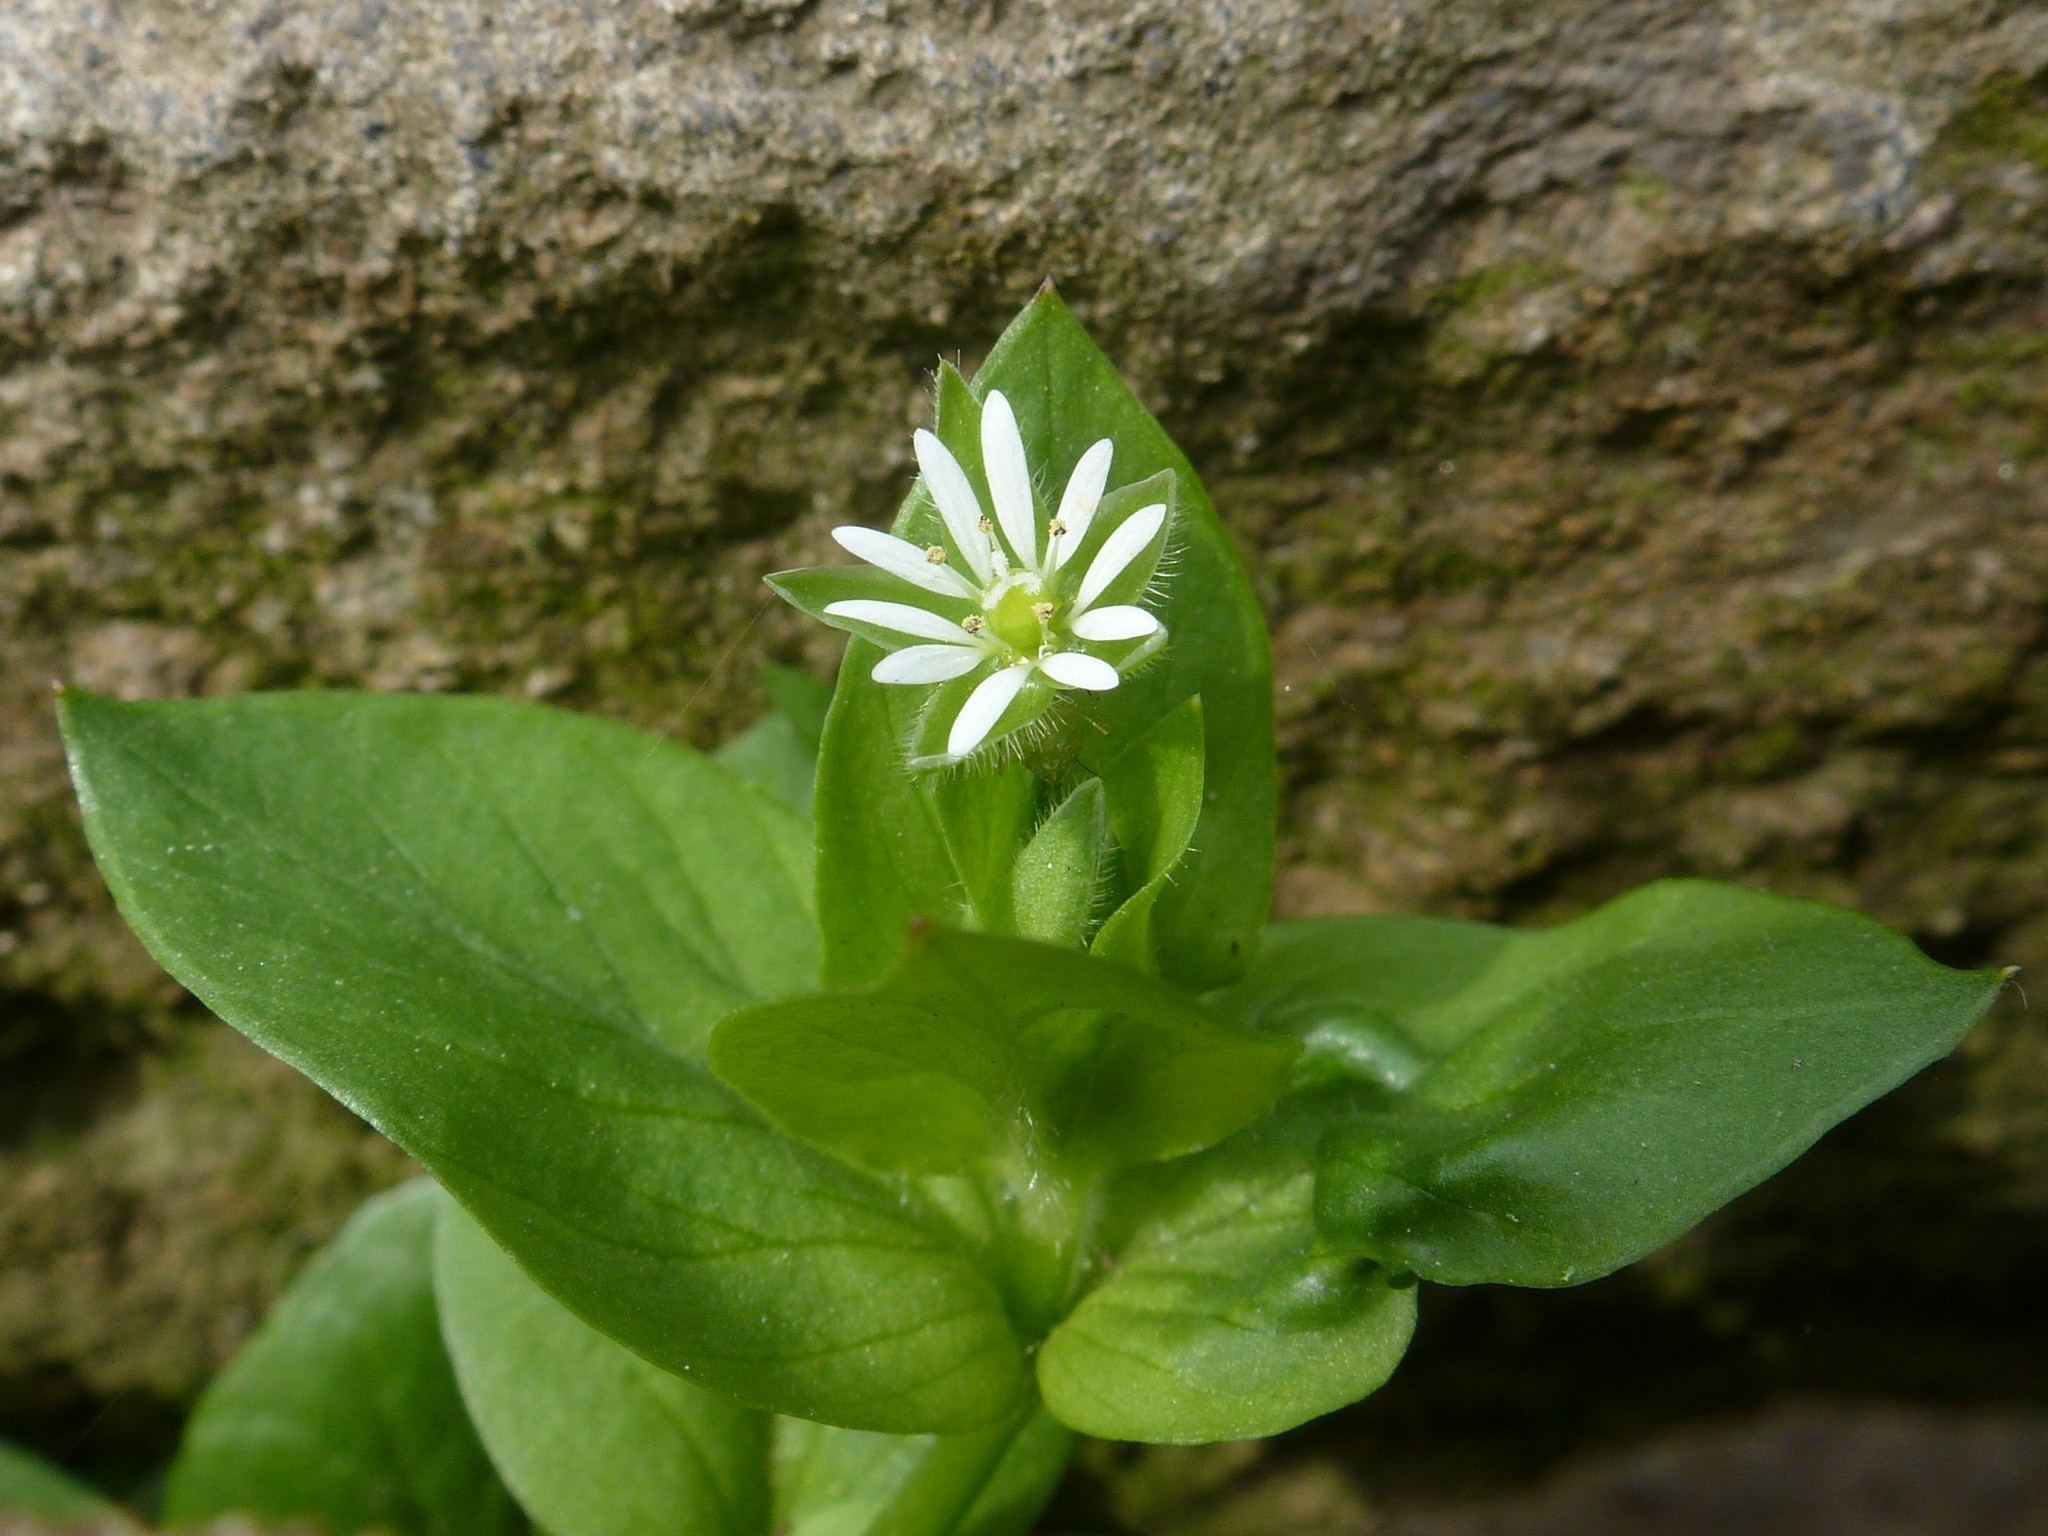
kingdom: Plantae
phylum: Tracheophyta
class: Magnoliopsida
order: Caryophyllales
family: Caryophyllaceae
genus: Stellaria
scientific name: Stellaria media
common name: Common chickweed
